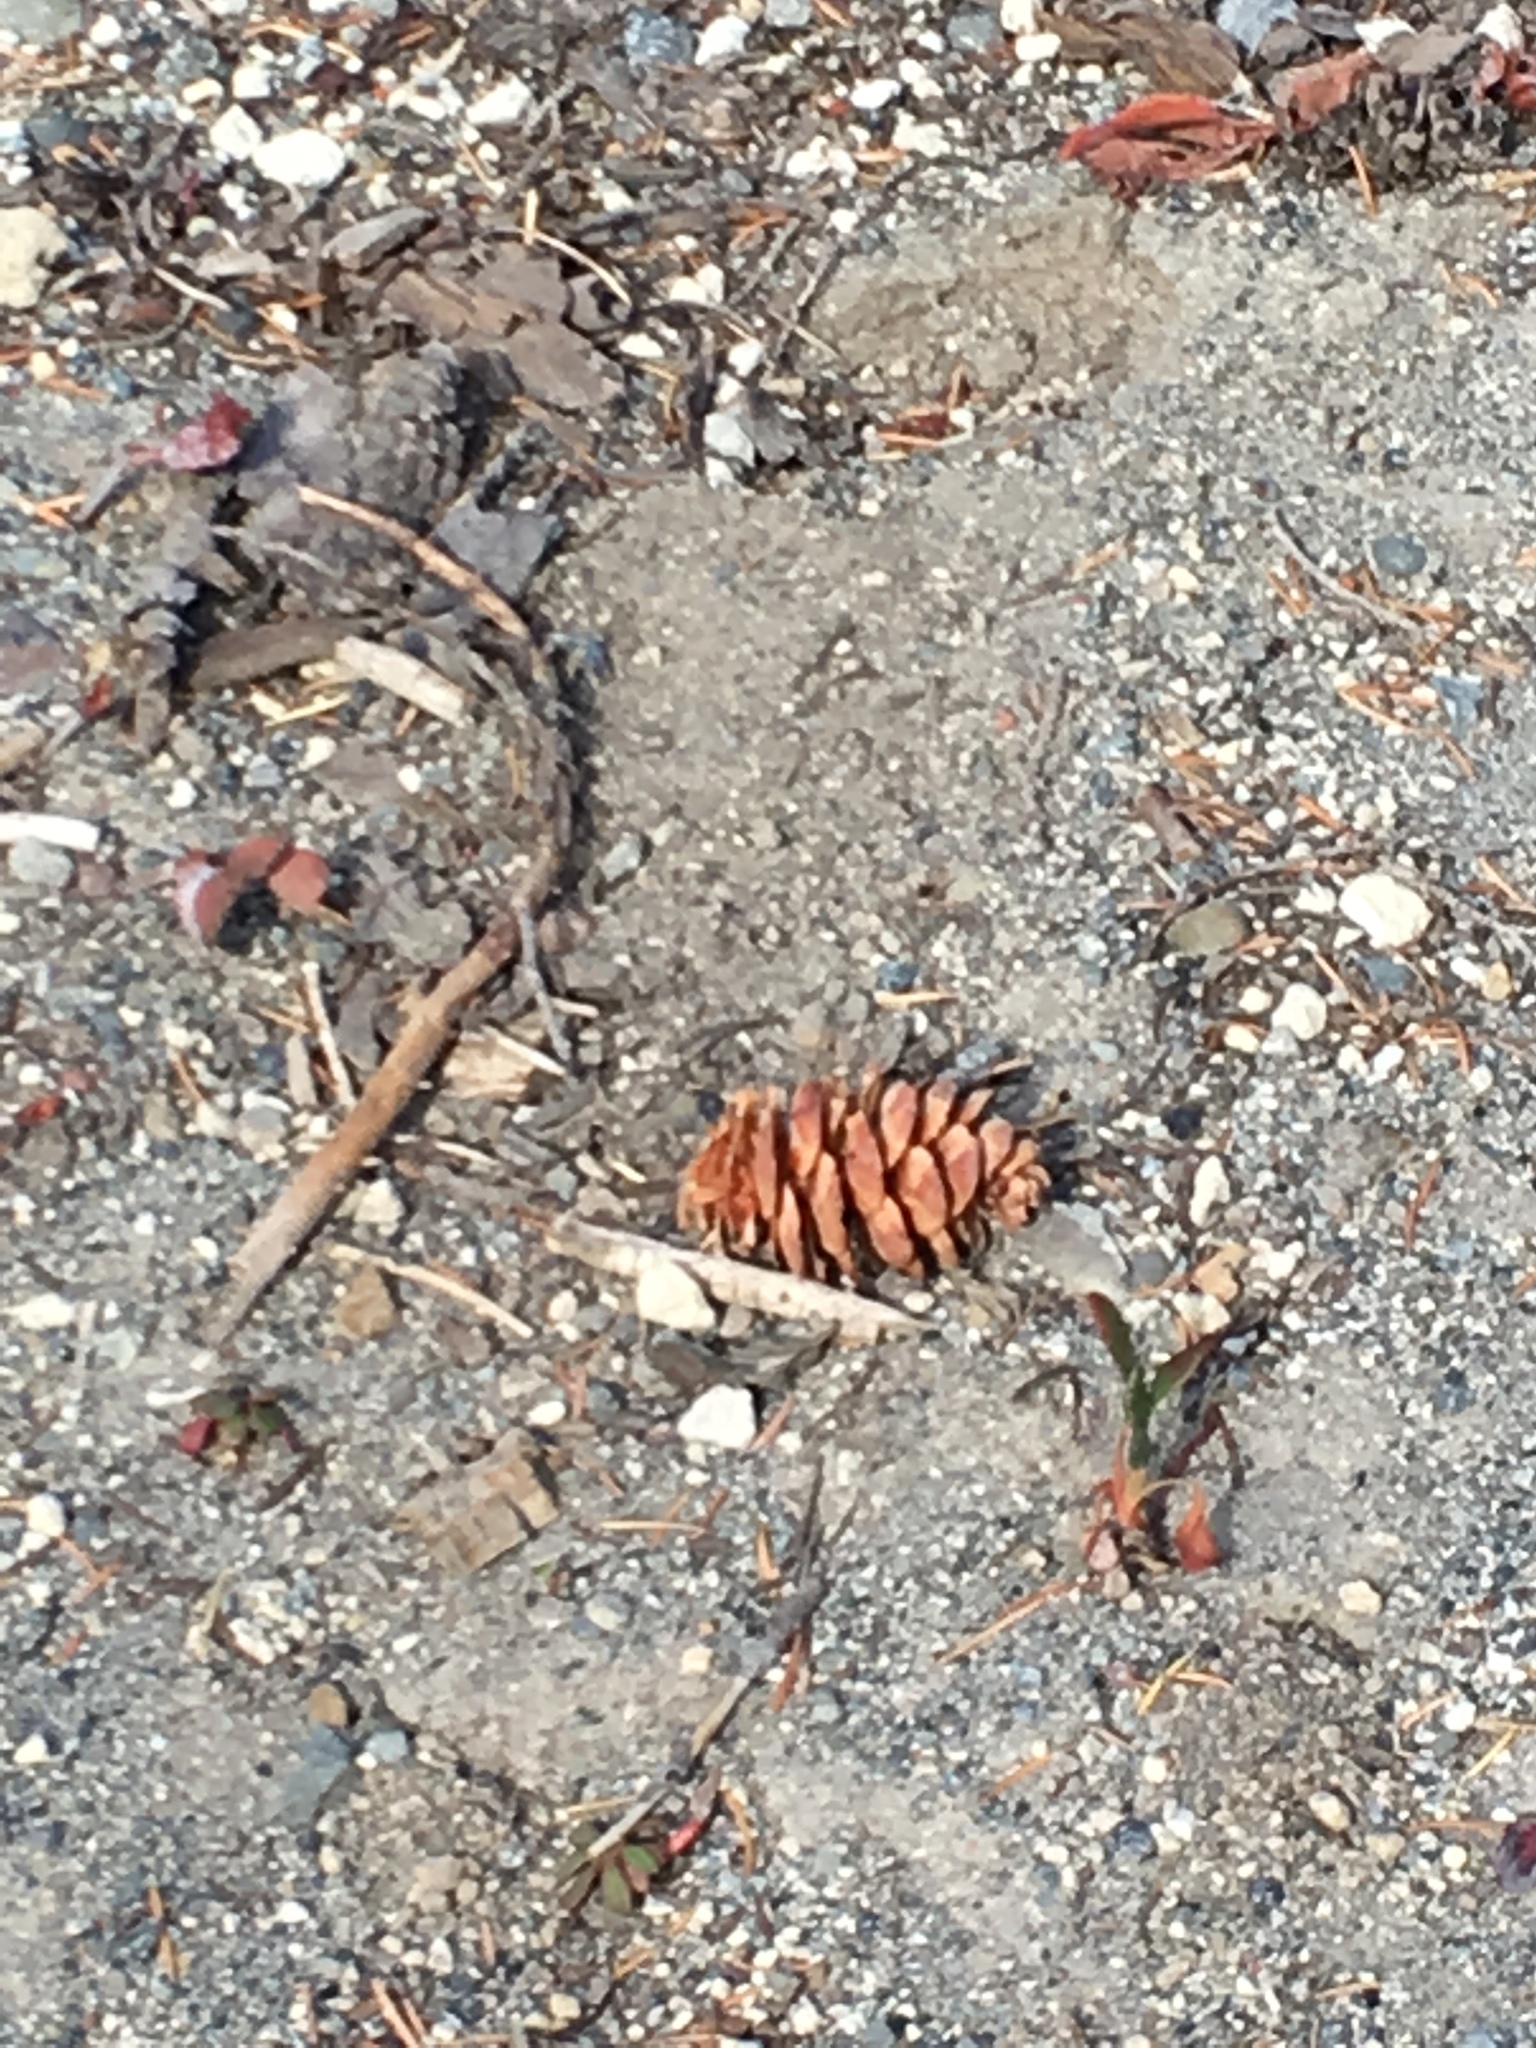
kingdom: Plantae
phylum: Tracheophyta
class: Pinopsida
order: Pinales
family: Pinaceae
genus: Tsuga
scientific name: Tsuga mertensiana
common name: Mountain hemlock
